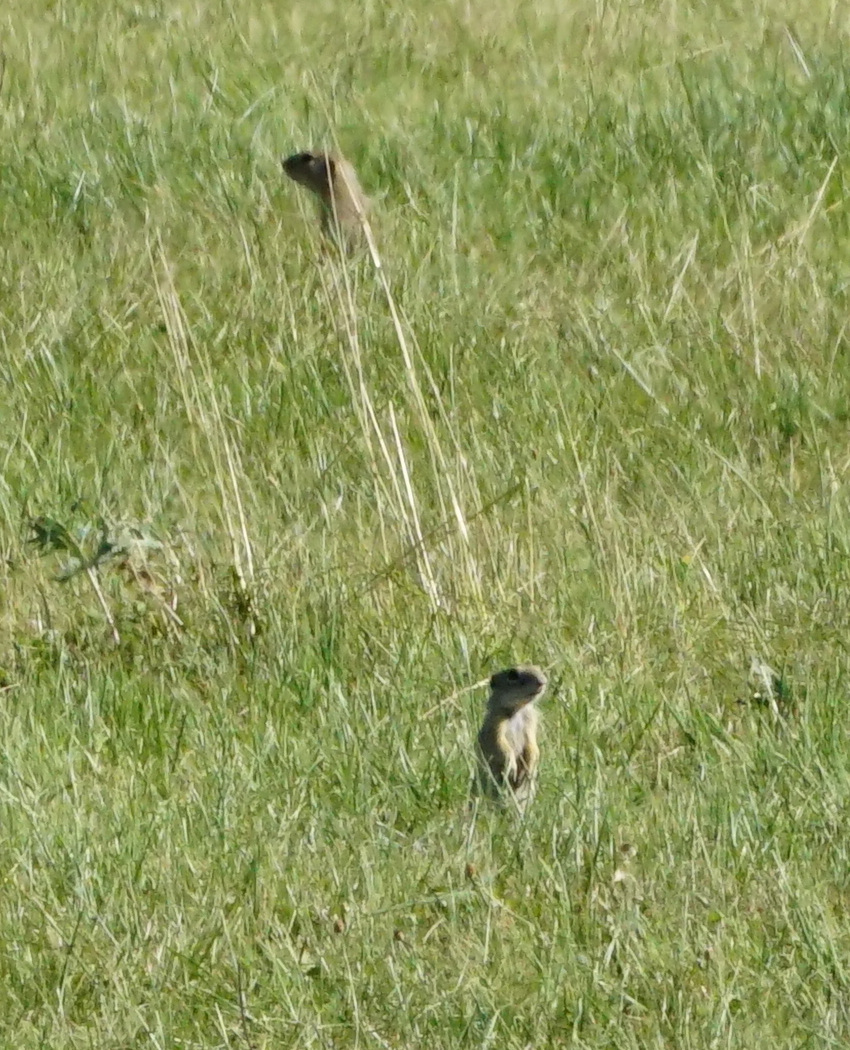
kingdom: Animalia
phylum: Chordata
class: Mammalia
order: Rodentia
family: Sciuridae
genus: Spermophilus
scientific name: Spermophilus citellus
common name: European ground squirrel
